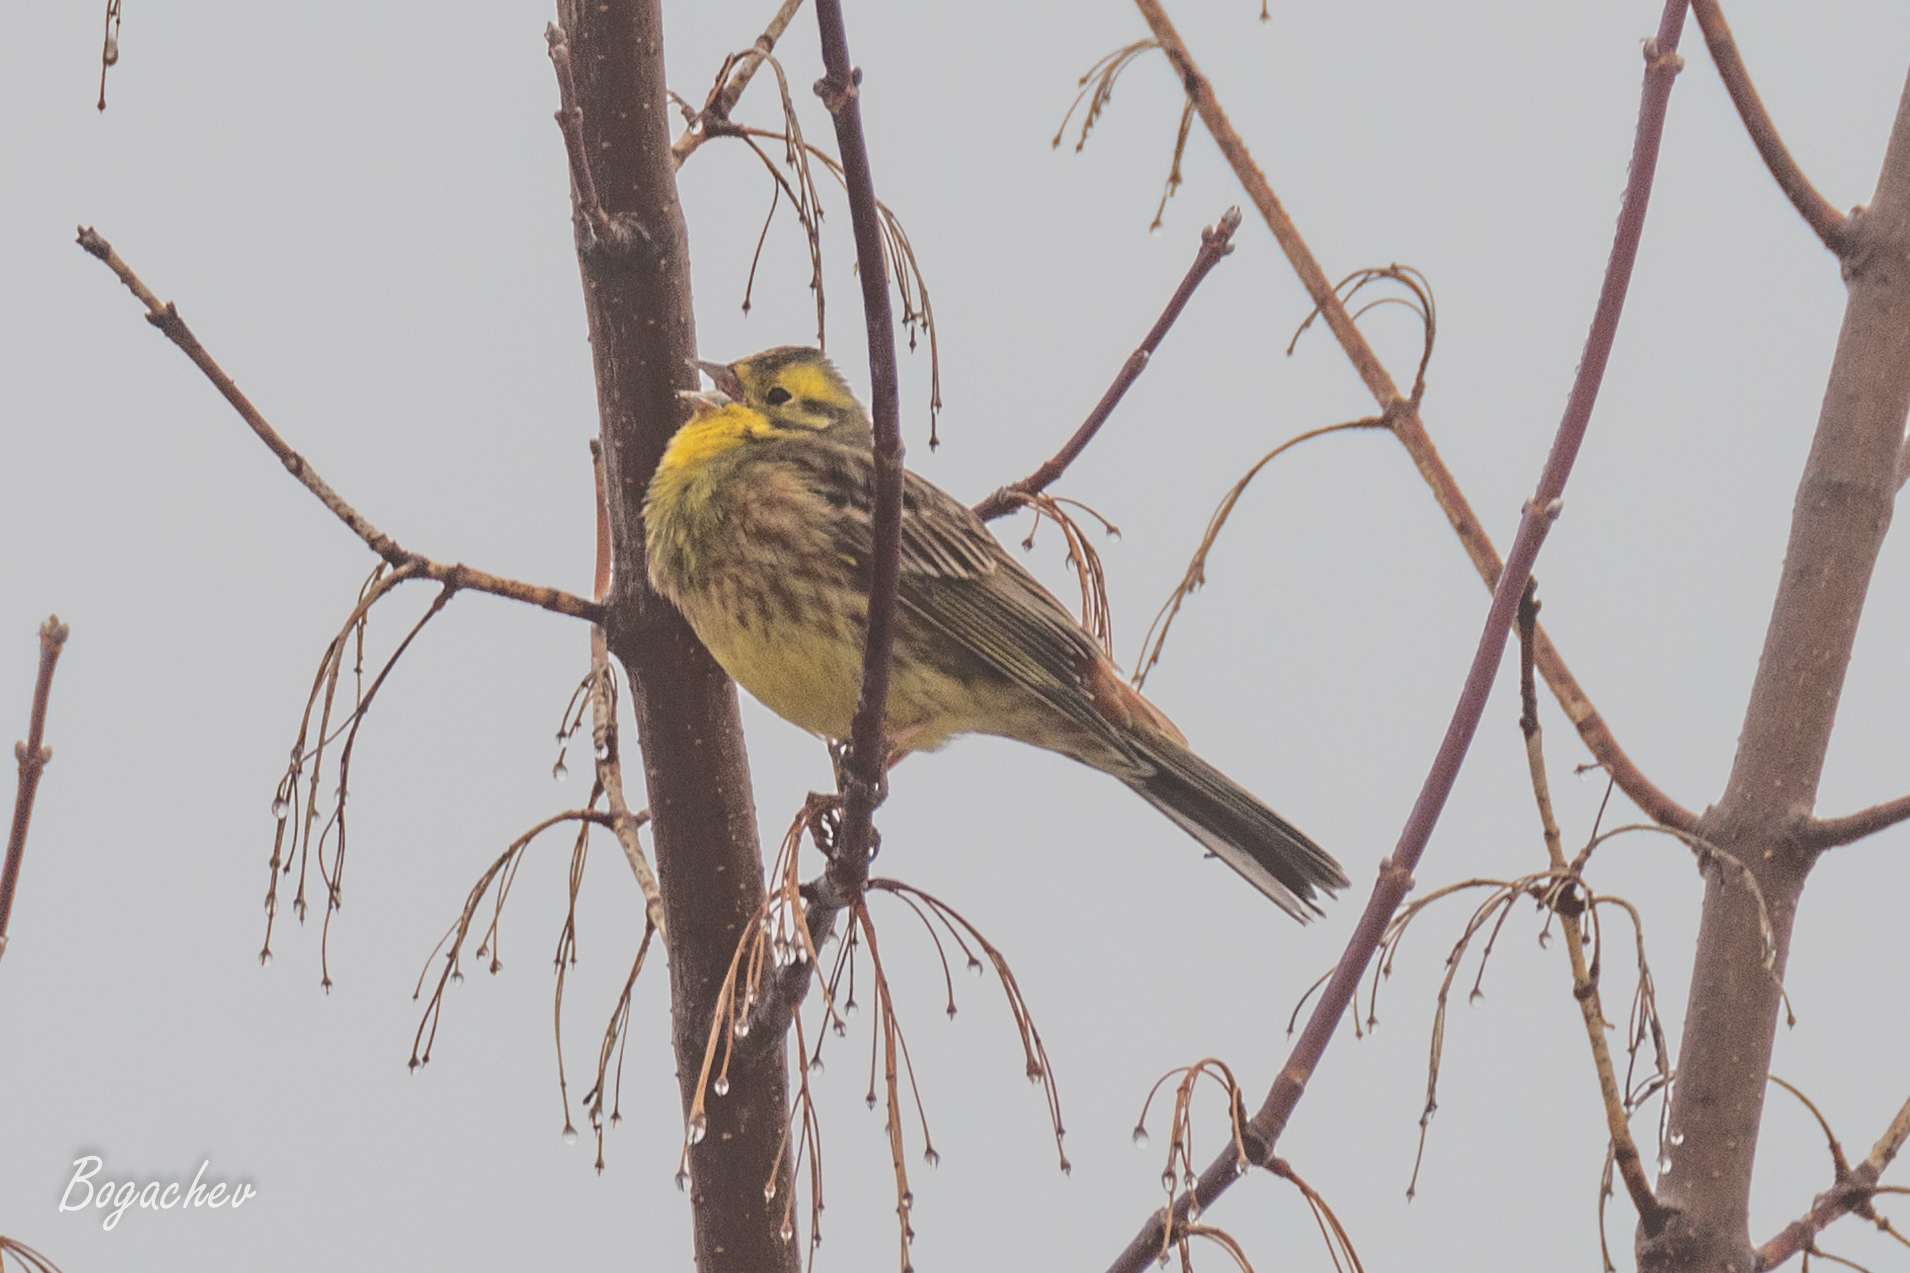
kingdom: Animalia
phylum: Chordata
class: Aves
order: Passeriformes
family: Emberizidae
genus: Emberiza
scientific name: Emberiza citrinella
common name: Yellowhammer
